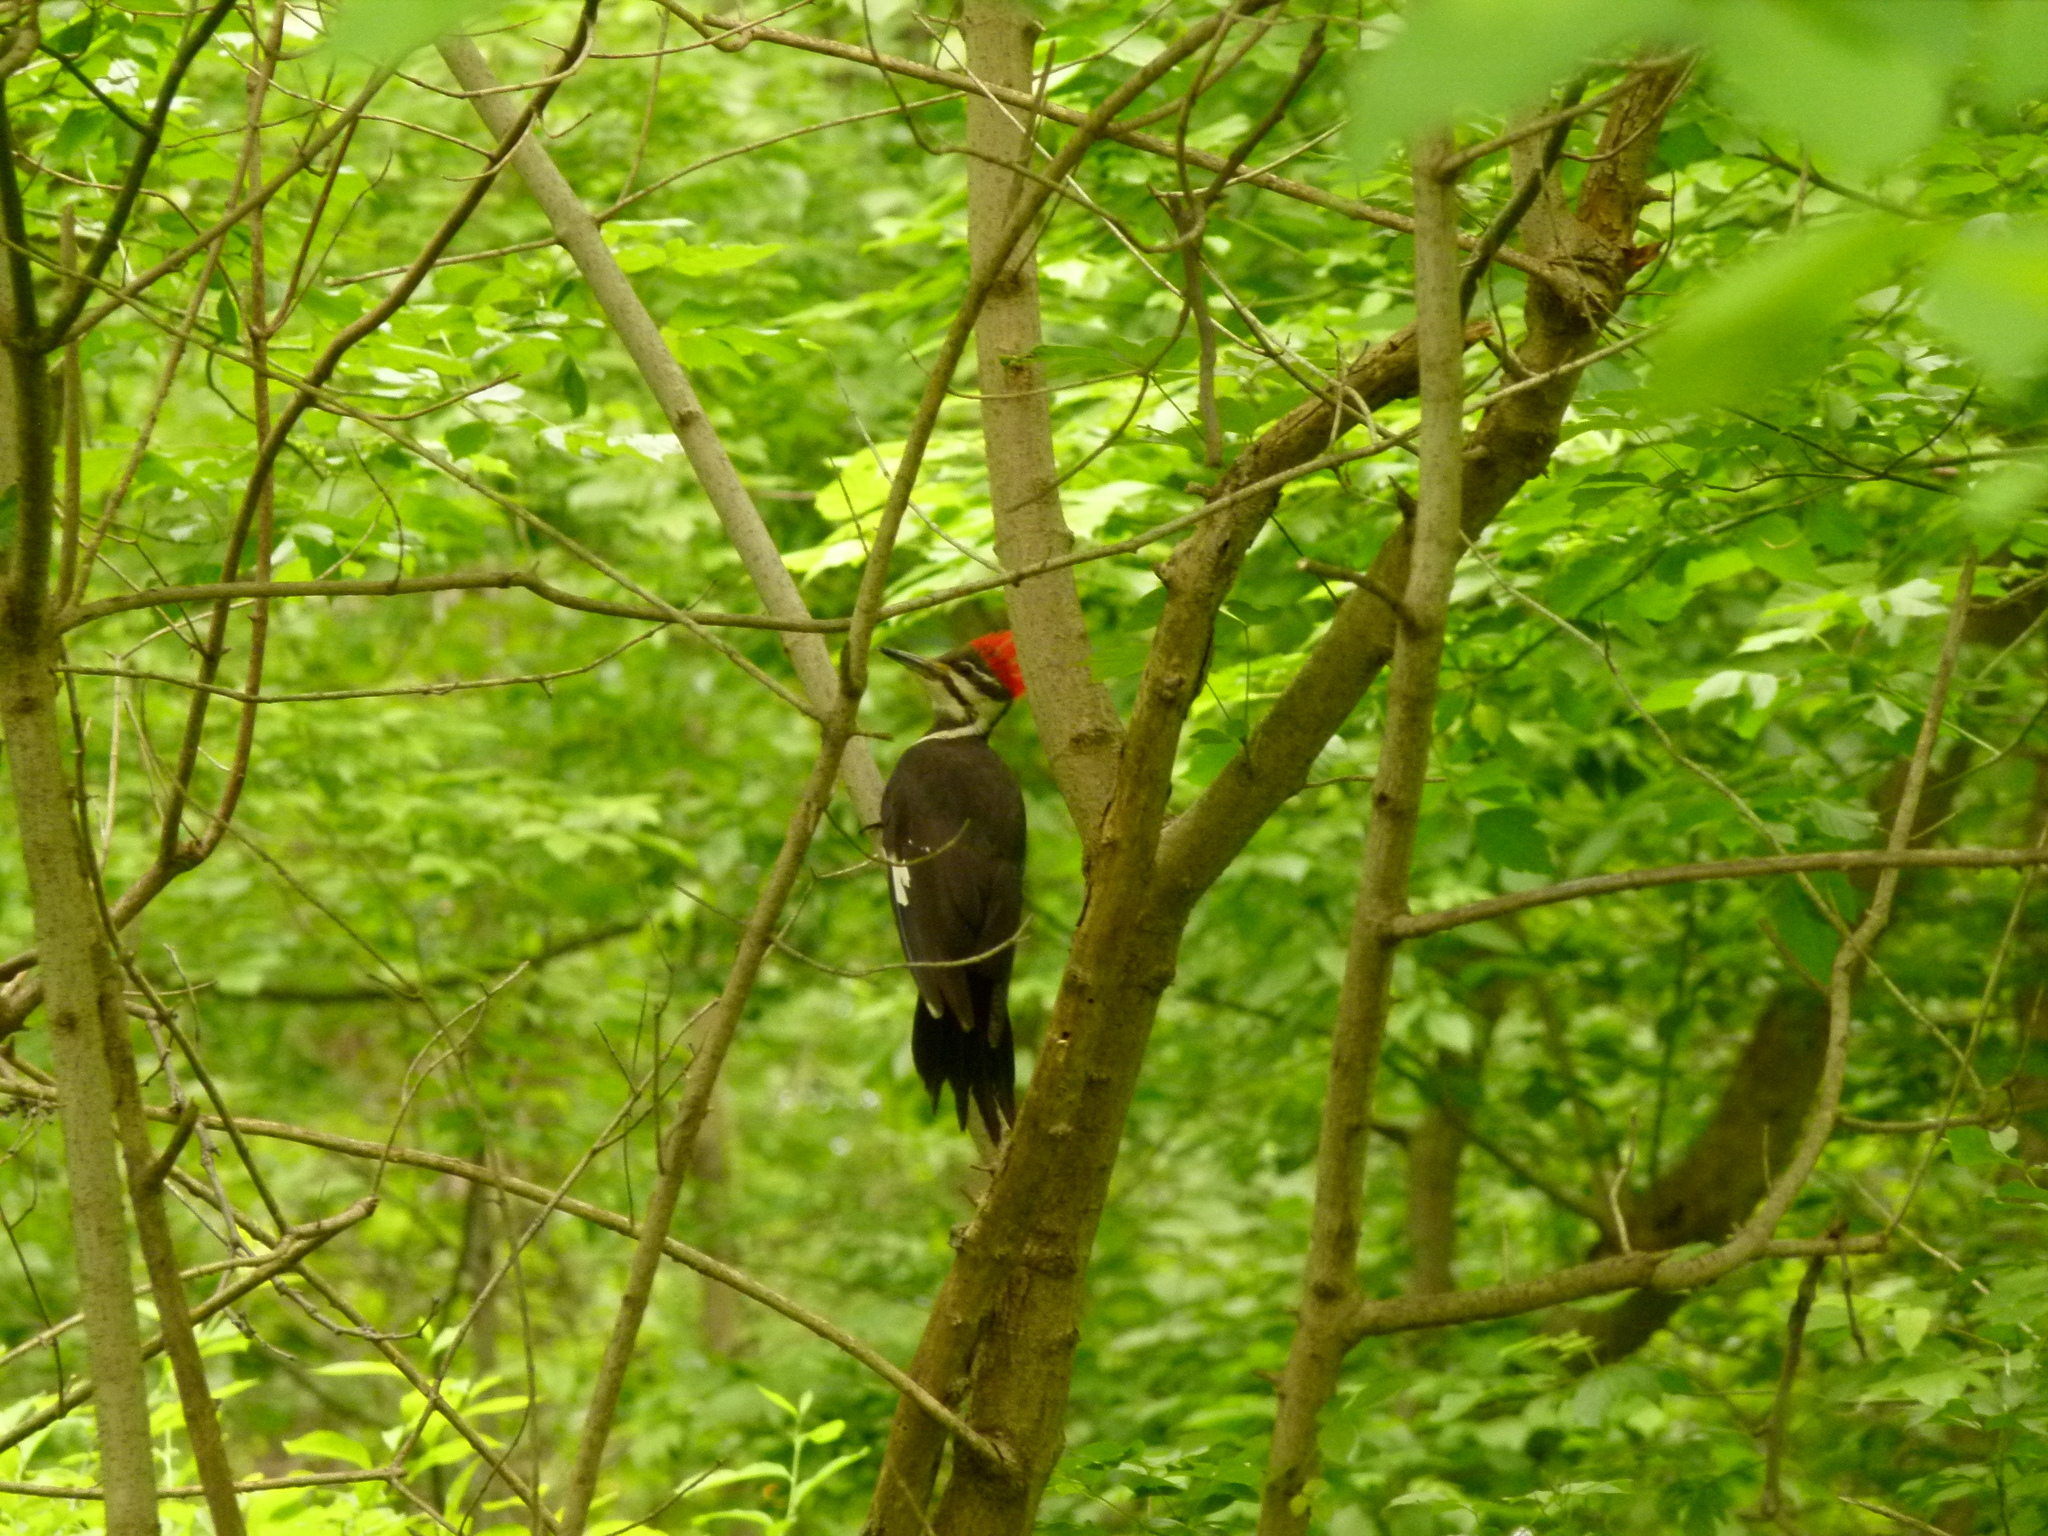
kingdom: Animalia
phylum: Chordata
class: Aves
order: Piciformes
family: Picidae
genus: Dryocopus
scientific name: Dryocopus pileatus
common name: Pileated woodpecker
